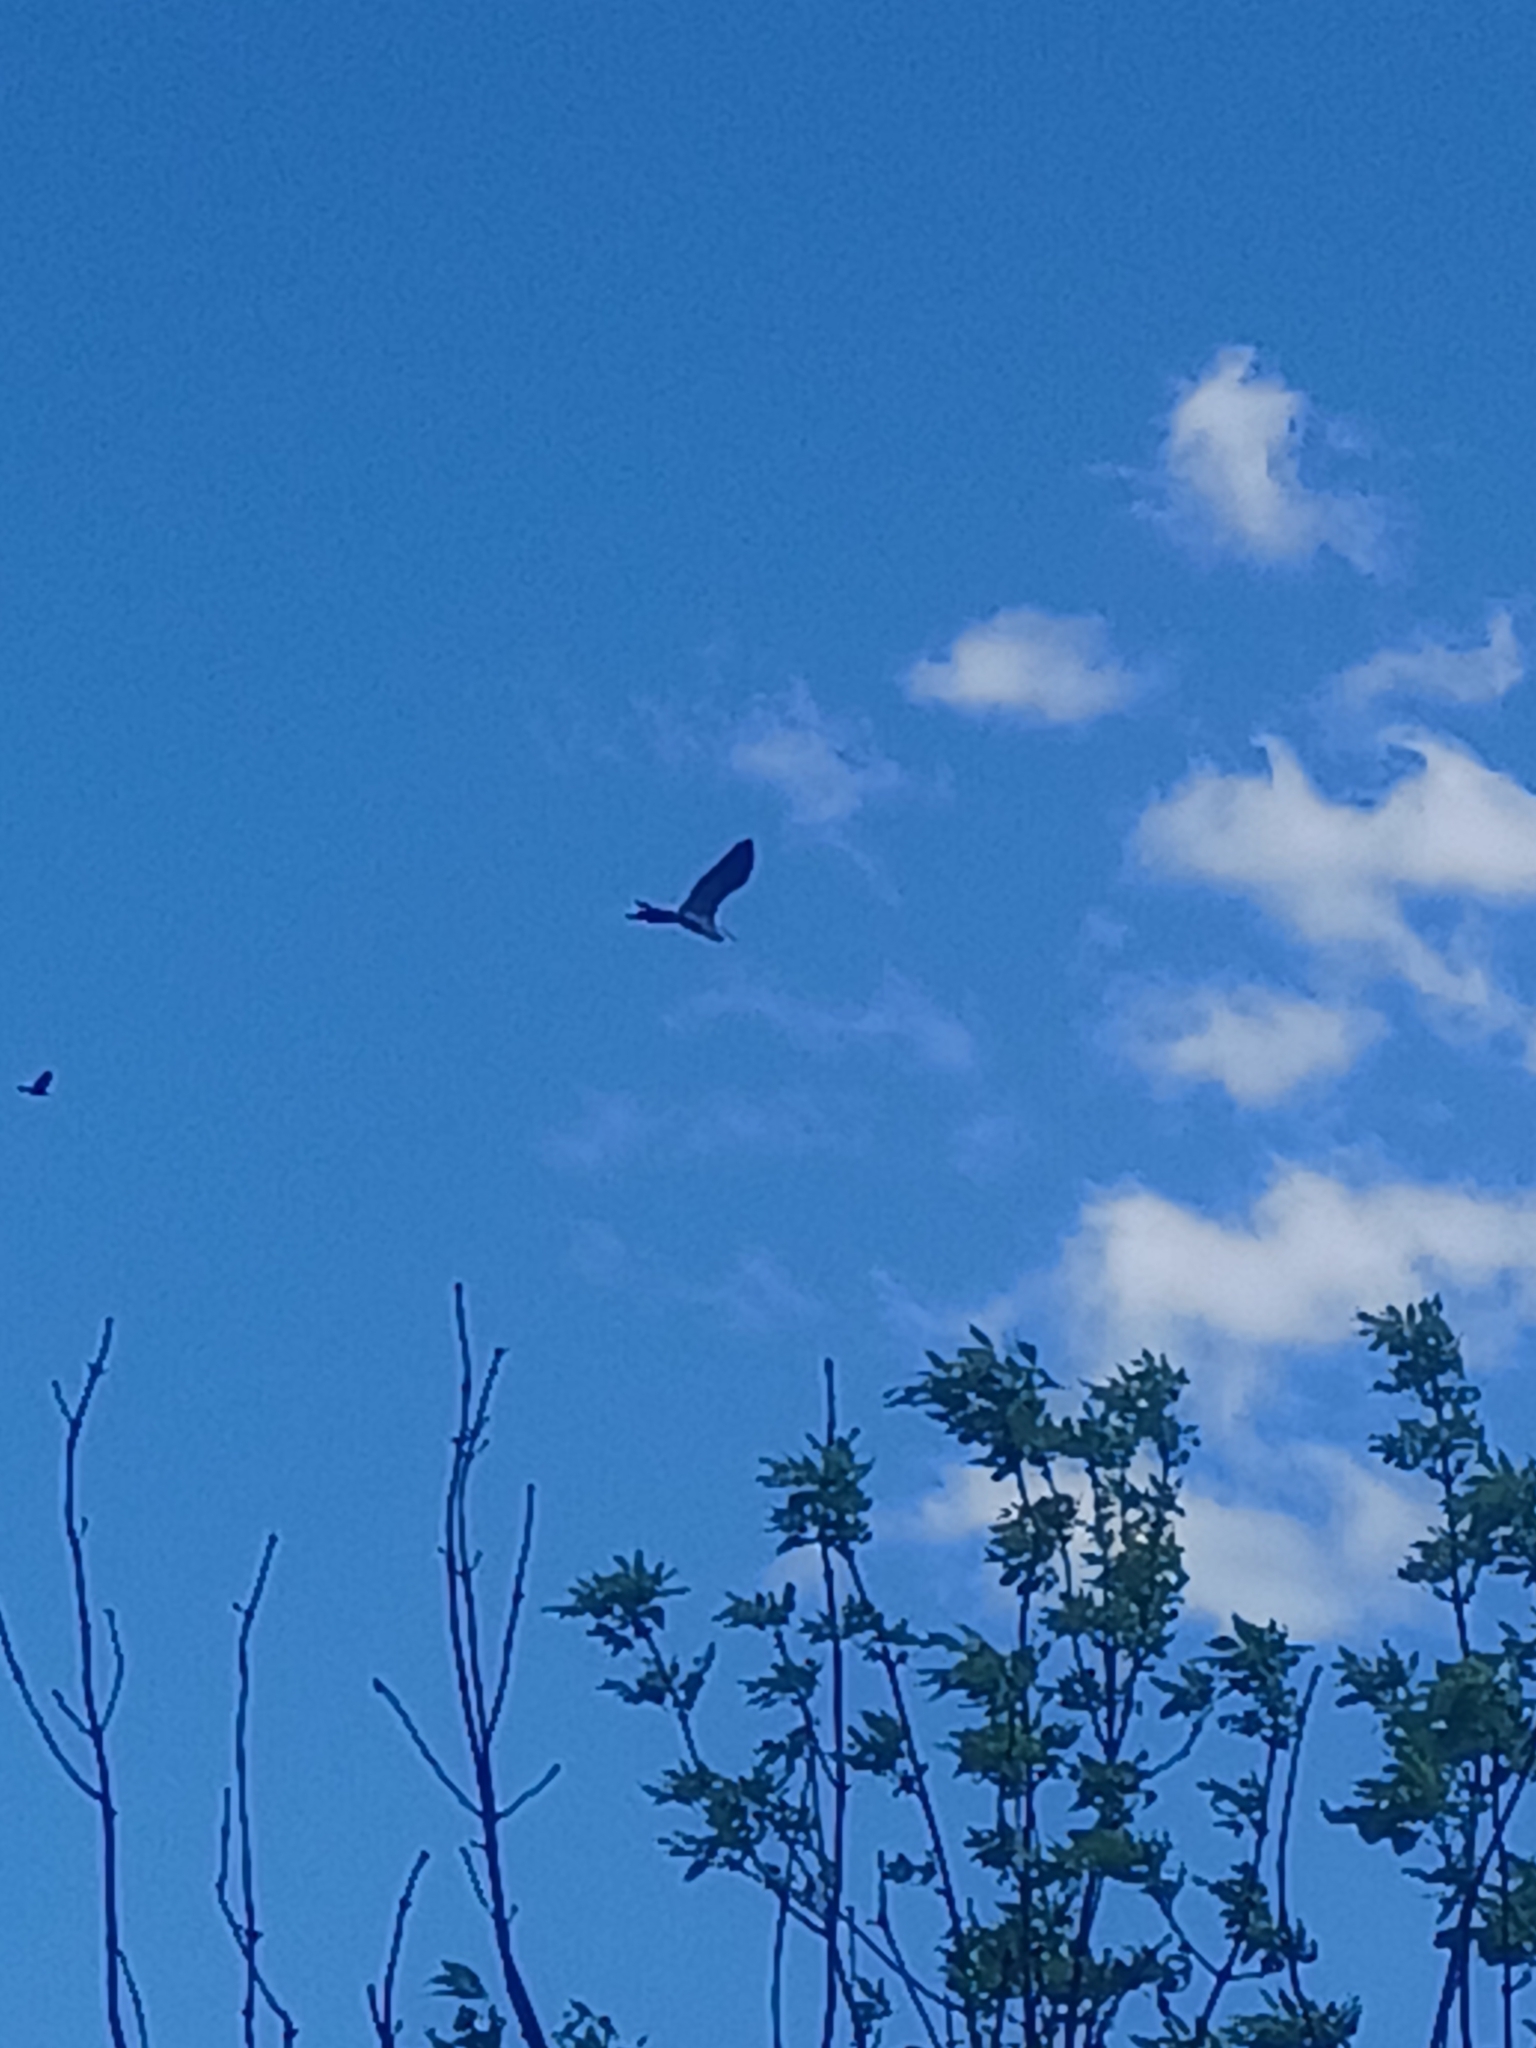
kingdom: Animalia
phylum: Chordata
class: Aves
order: Pelecaniformes
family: Ardeidae
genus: Ardea
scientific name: Ardea herodias
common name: Great blue heron
